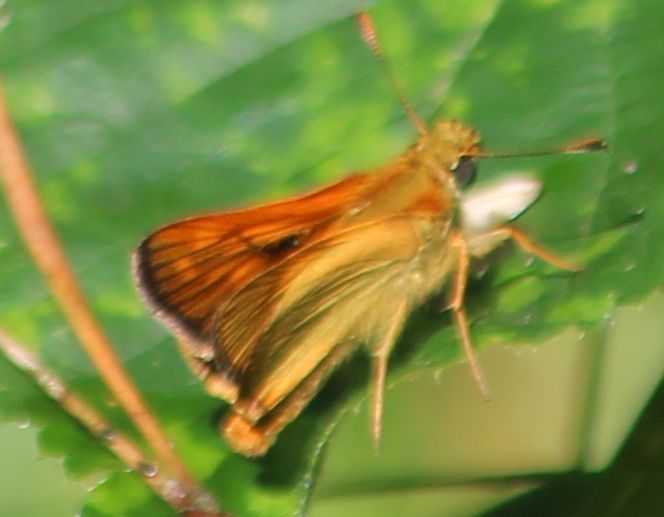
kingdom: Animalia
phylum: Arthropoda
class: Insecta
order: Lepidoptera
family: Hesperiidae
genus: Ochlodes
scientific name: Ochlodes venata
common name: Large skipper
